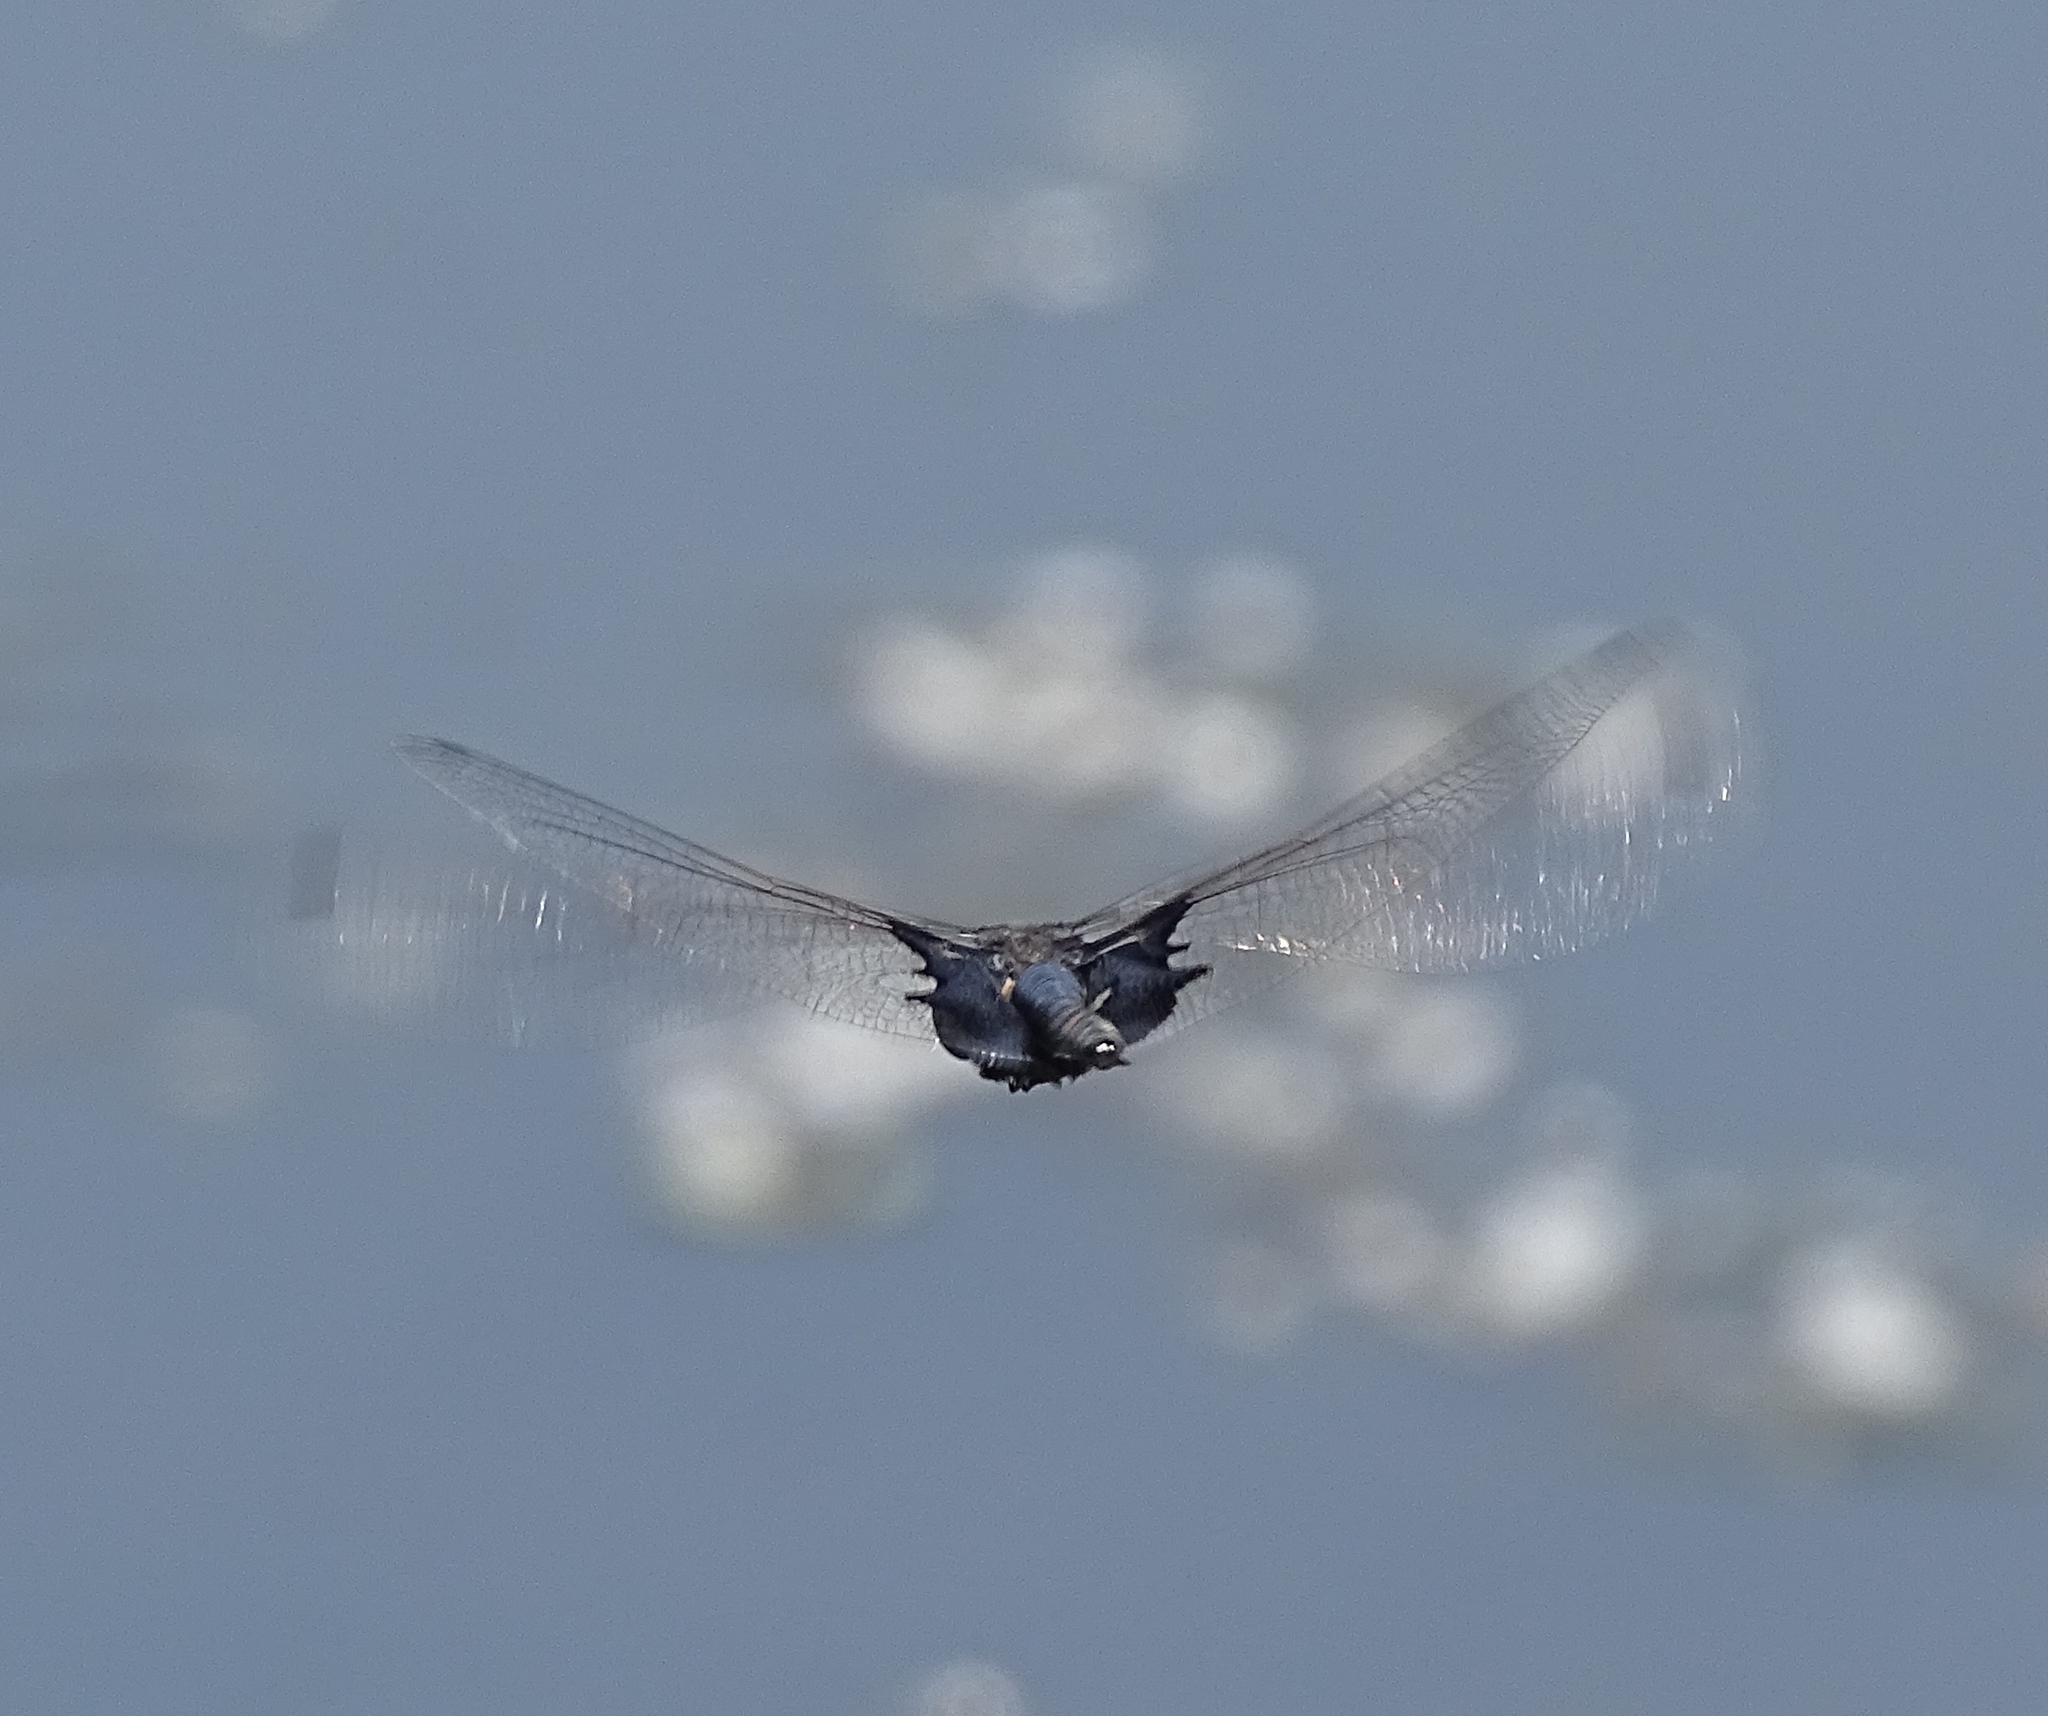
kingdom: Animalia
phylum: Arthropoda
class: Insecta
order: Odonata
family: Libellulidae
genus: Tramea
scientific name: Tramea lacerata
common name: Black saddlebags
